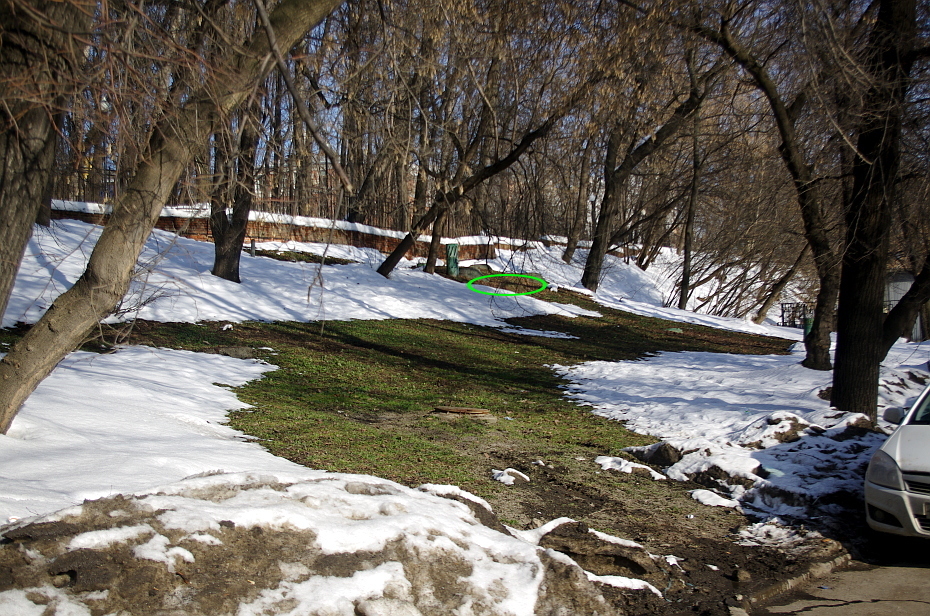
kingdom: Plantae
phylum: Tracheophyta
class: Magnoliopsida
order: Lamiales
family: Lamiaceae
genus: Glechoma
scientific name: Glechoma hederacea
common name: Ground ivy
